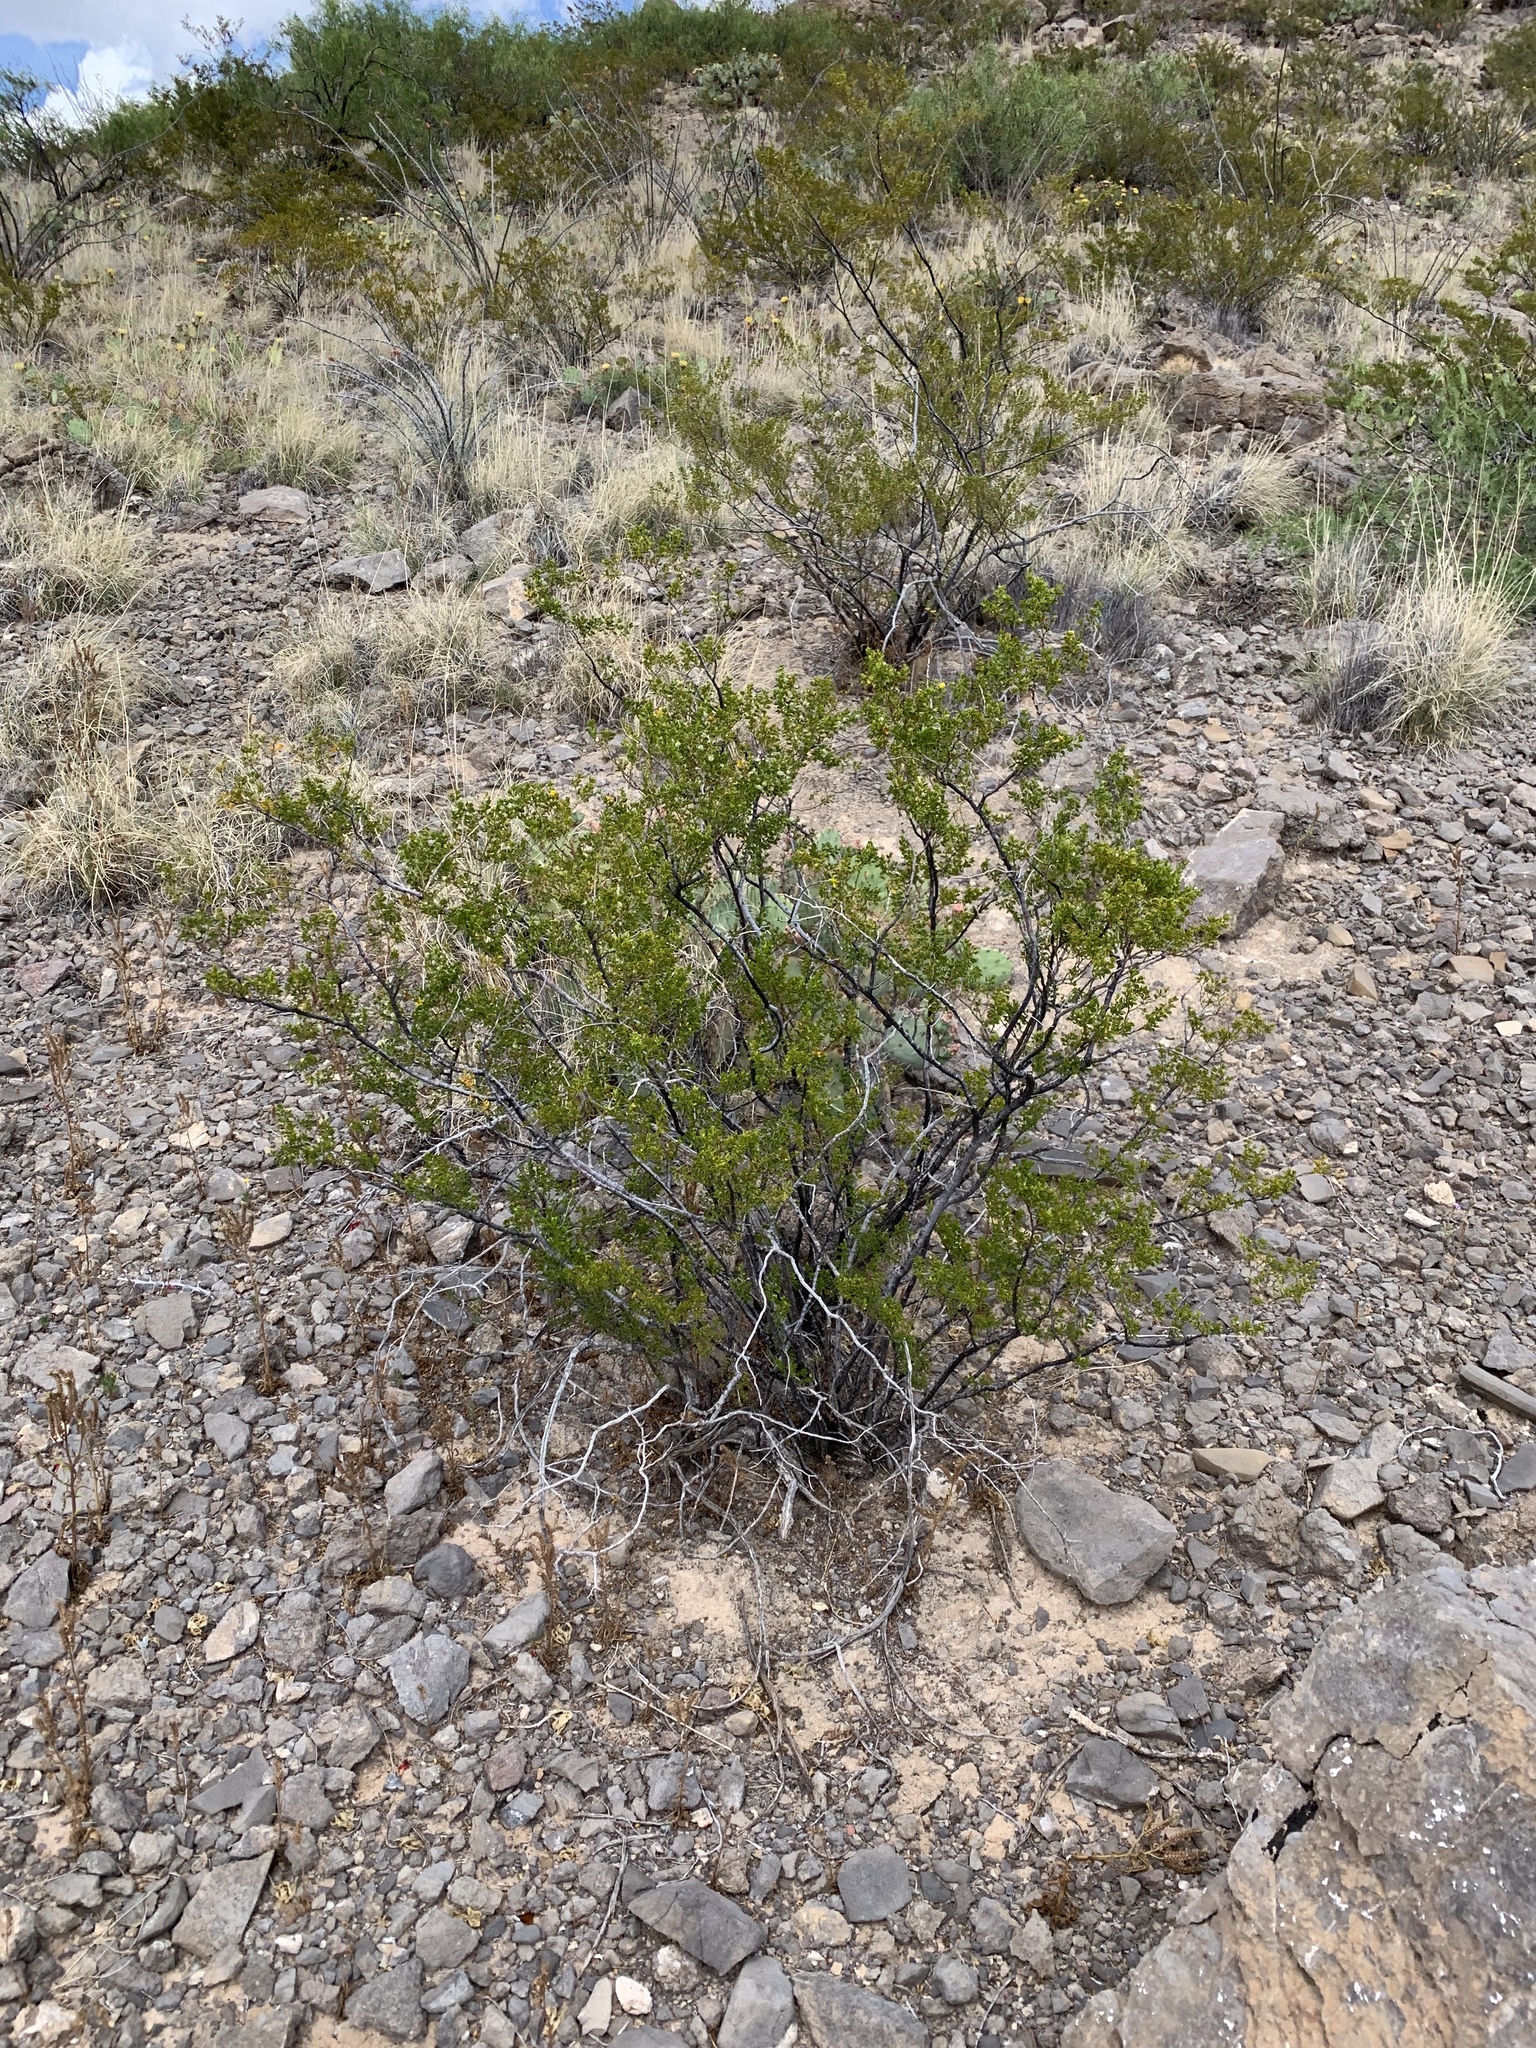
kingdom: Plantae
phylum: Tracheophyta
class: Magnoliopsida
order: Zygophyllales
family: Zygophyllaceae
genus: Larrea
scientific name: Larrea tridentata
